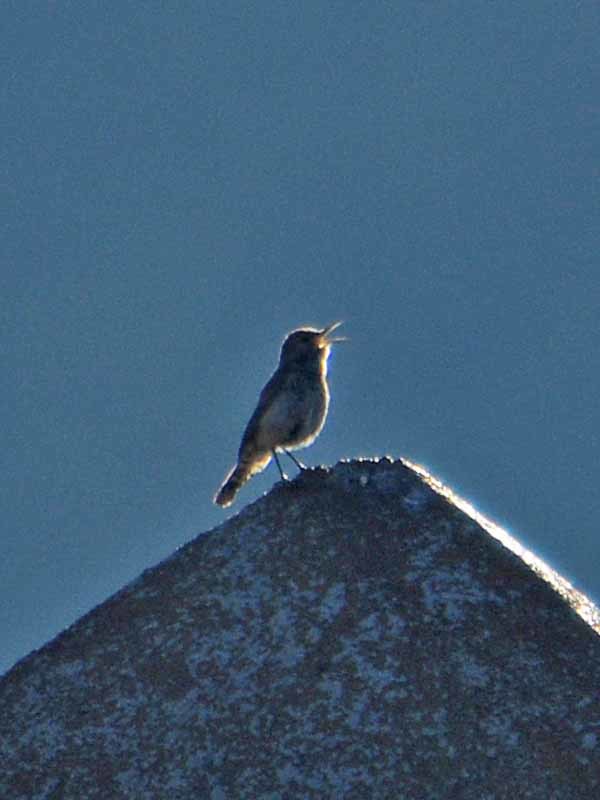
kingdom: Animalia
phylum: Chordata
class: Aves
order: Passeriformes
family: Troglodytidae
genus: Salpinctes
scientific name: Salpinctes obsoletus
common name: Rock wren
